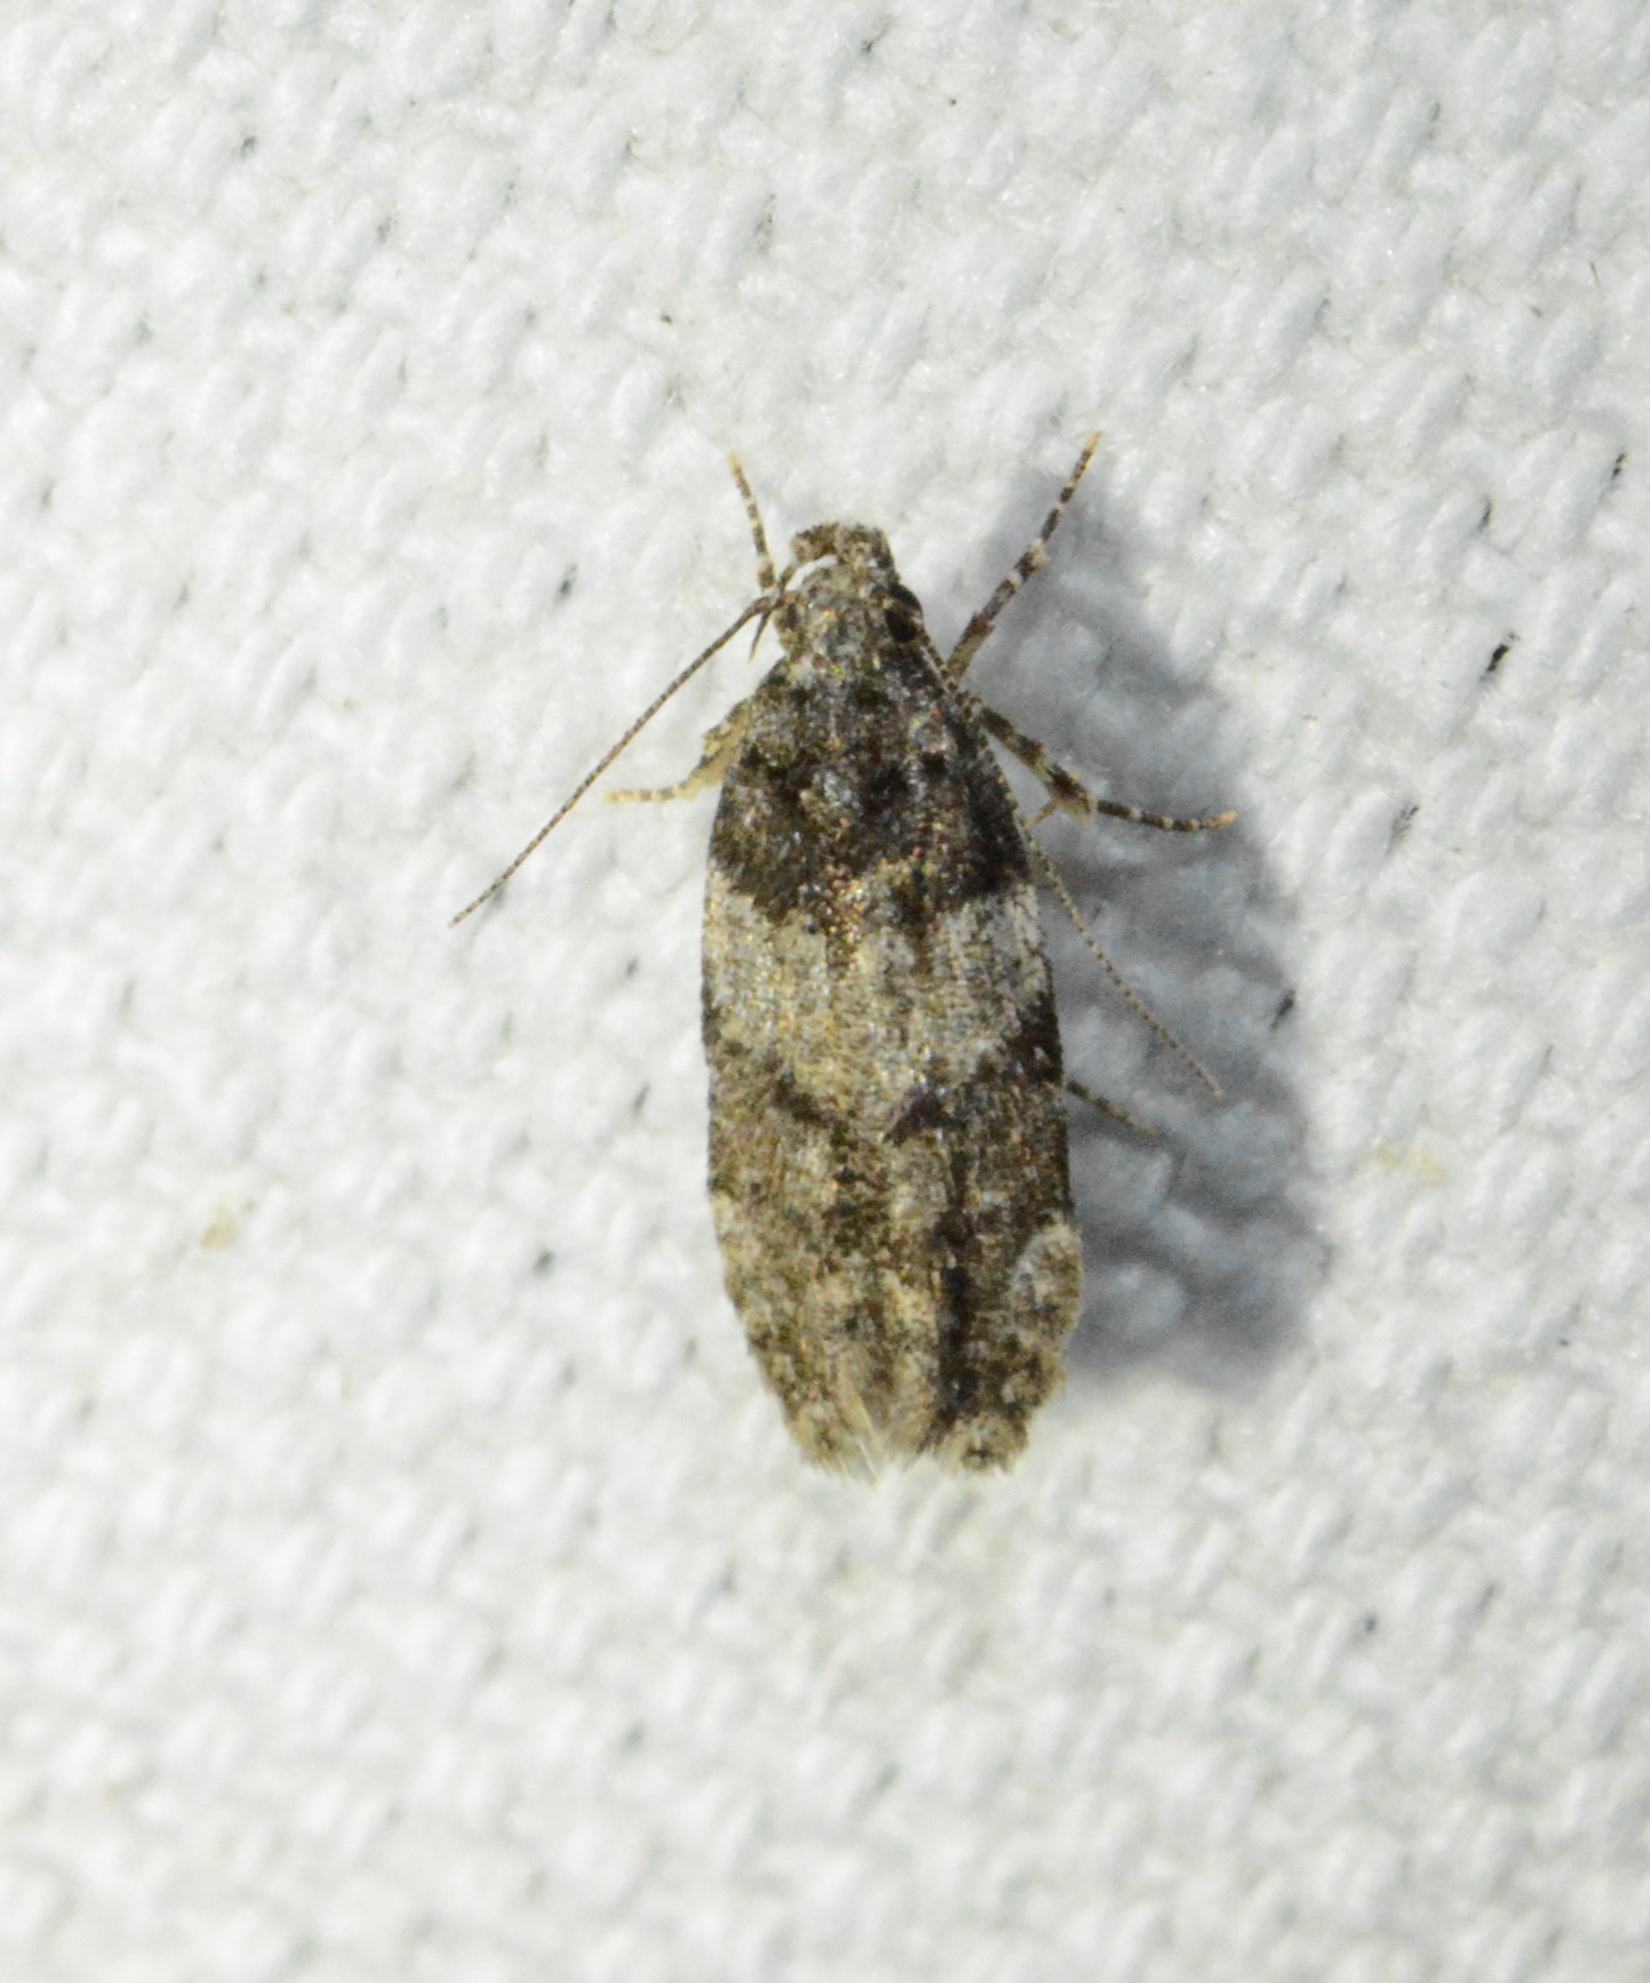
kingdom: Animalia
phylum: Arthropoda
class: Insecta
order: Lepidoptera
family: Gelechiidae
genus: Pubitelphusa
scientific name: Pubitelphusa latifasciella
